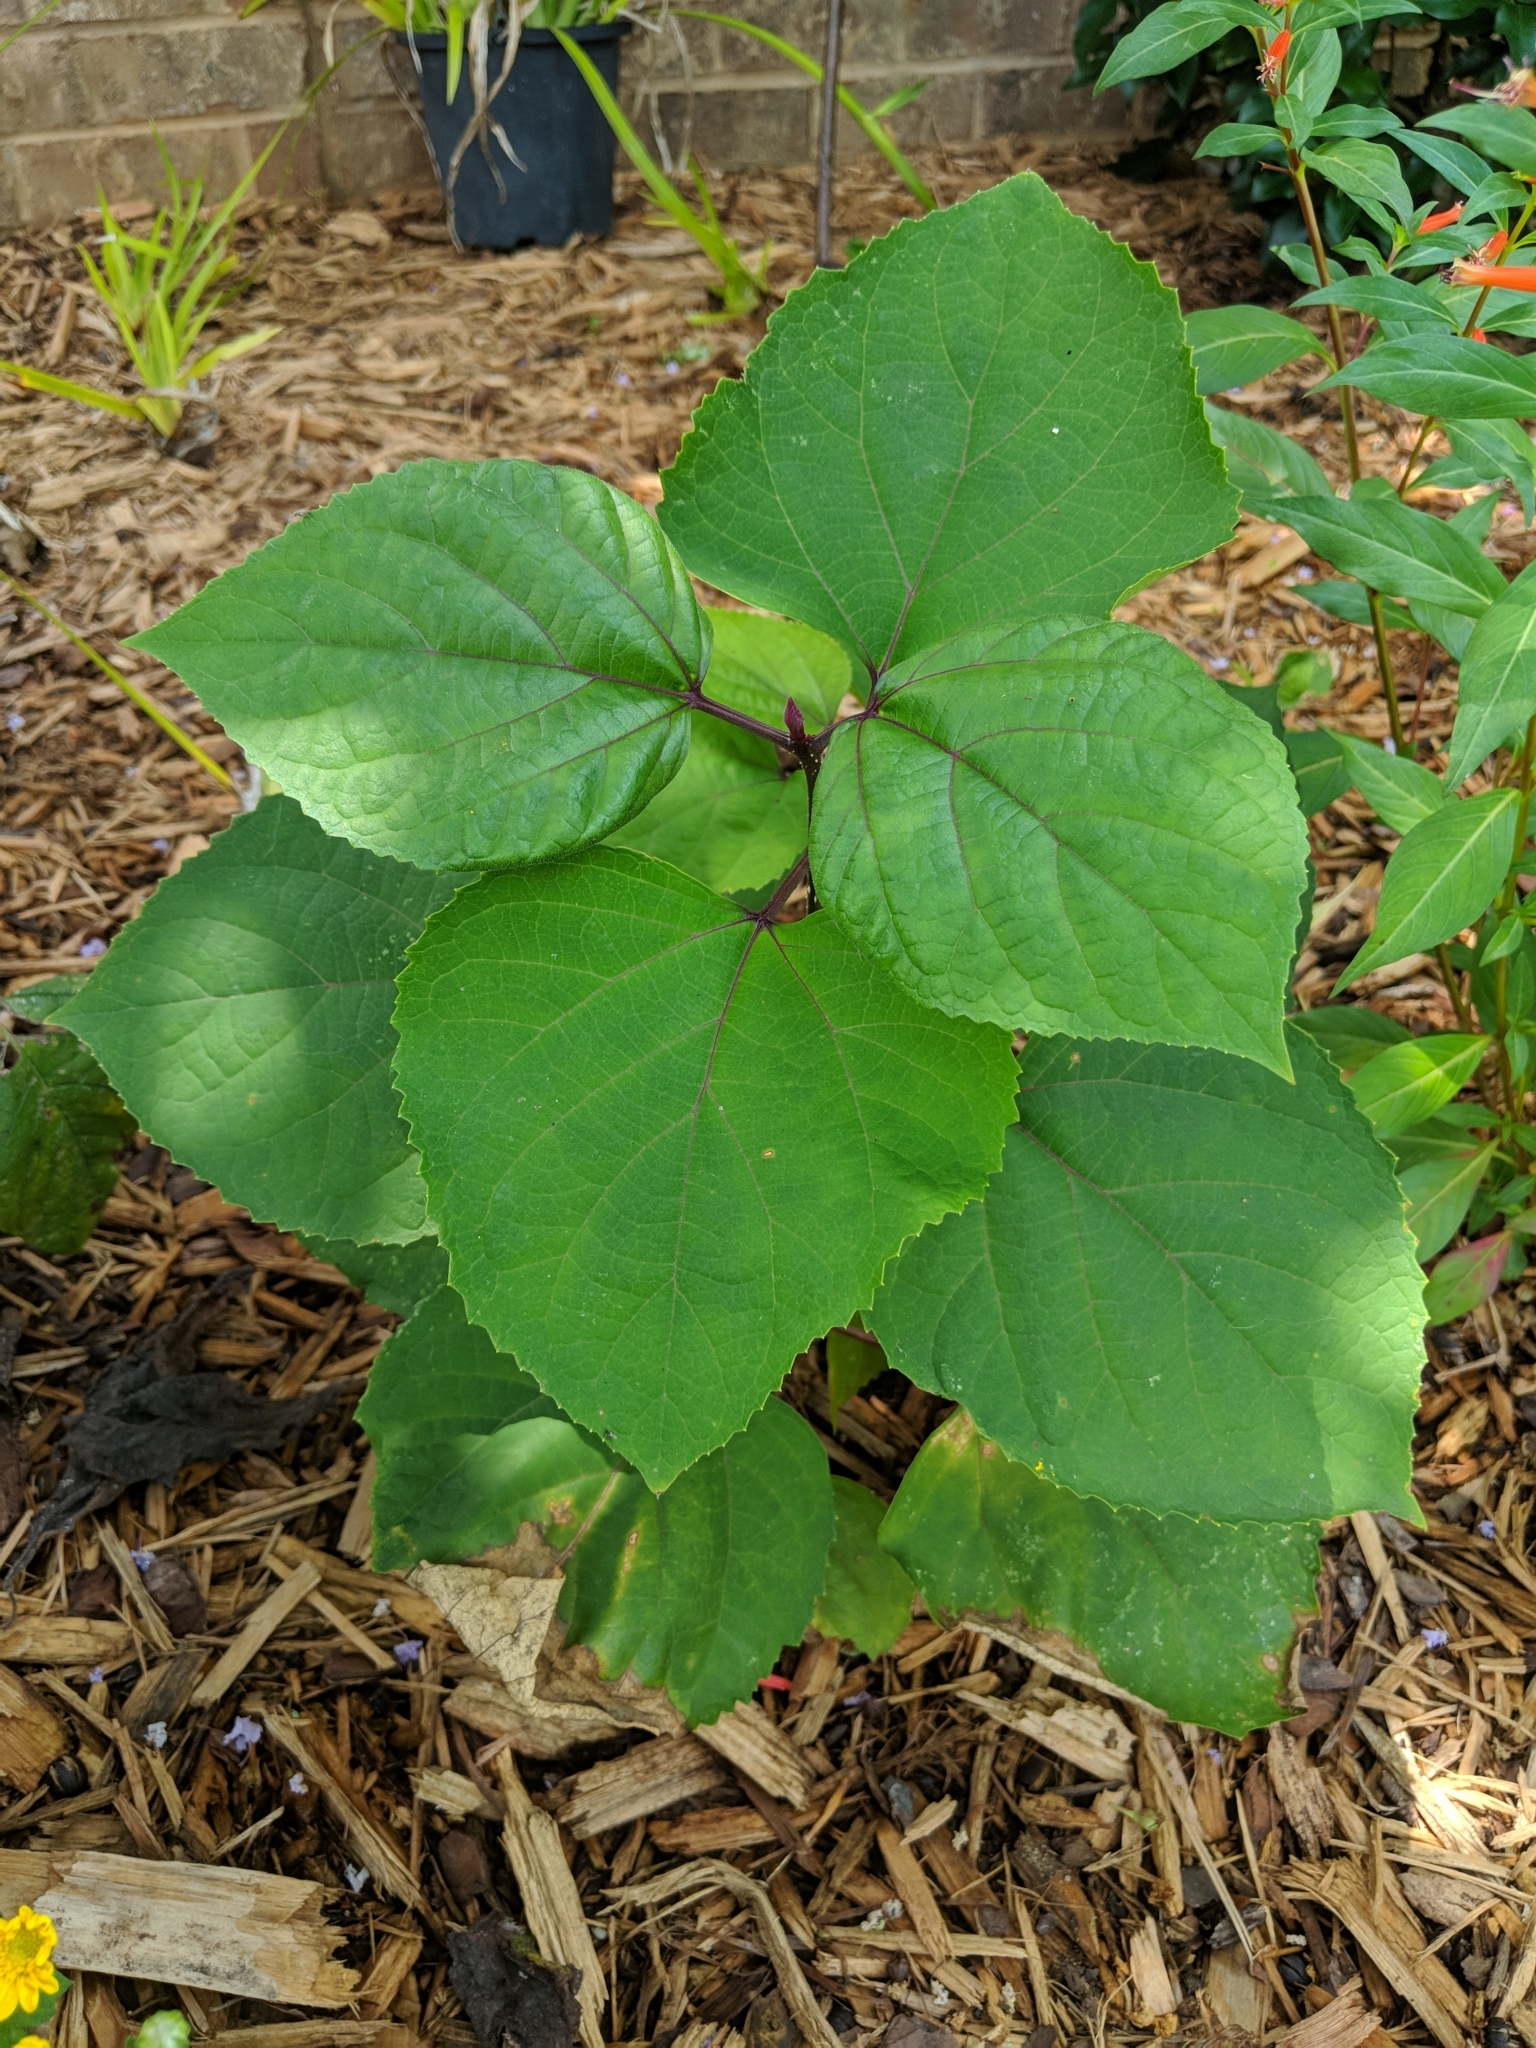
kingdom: Plantae
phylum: Tracheophyta
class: Magnoliopsida
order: Lamiales
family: Lamiaceae
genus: Clerodendrum
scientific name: Clerodendrum bungei
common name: Rose glorybower
